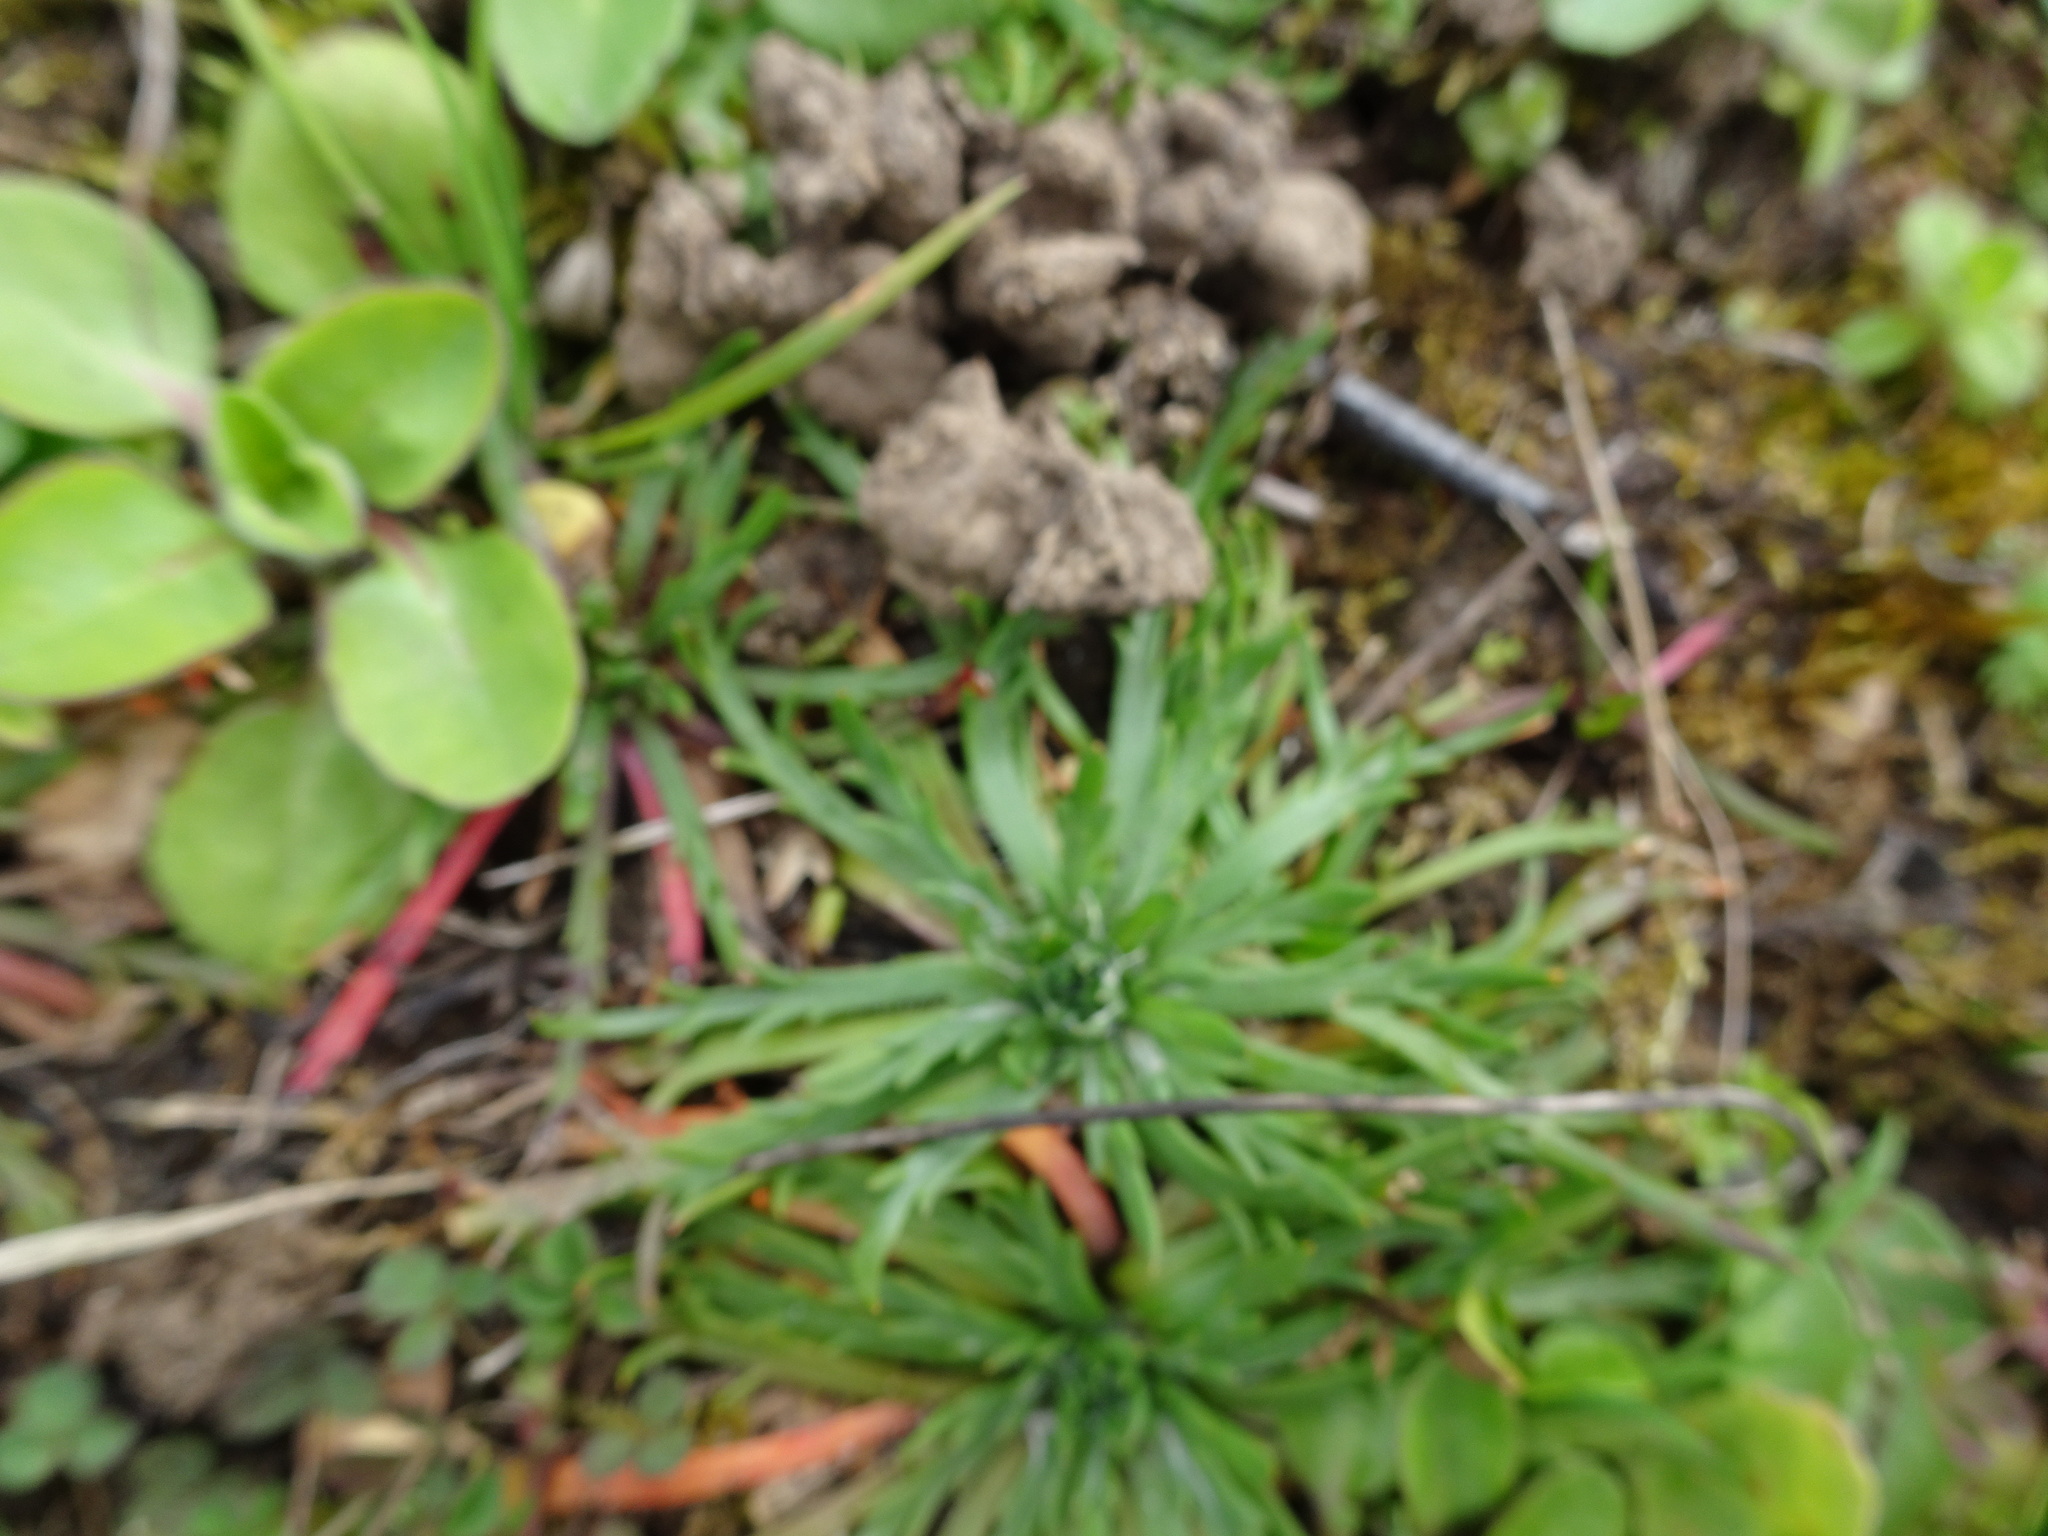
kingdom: Plantae
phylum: Tracheophyta
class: Magnoliopsida
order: Lamiales
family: Plantaginaceae
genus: Plantago
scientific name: Plantago coronopus
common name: Buck's-horn plantain
